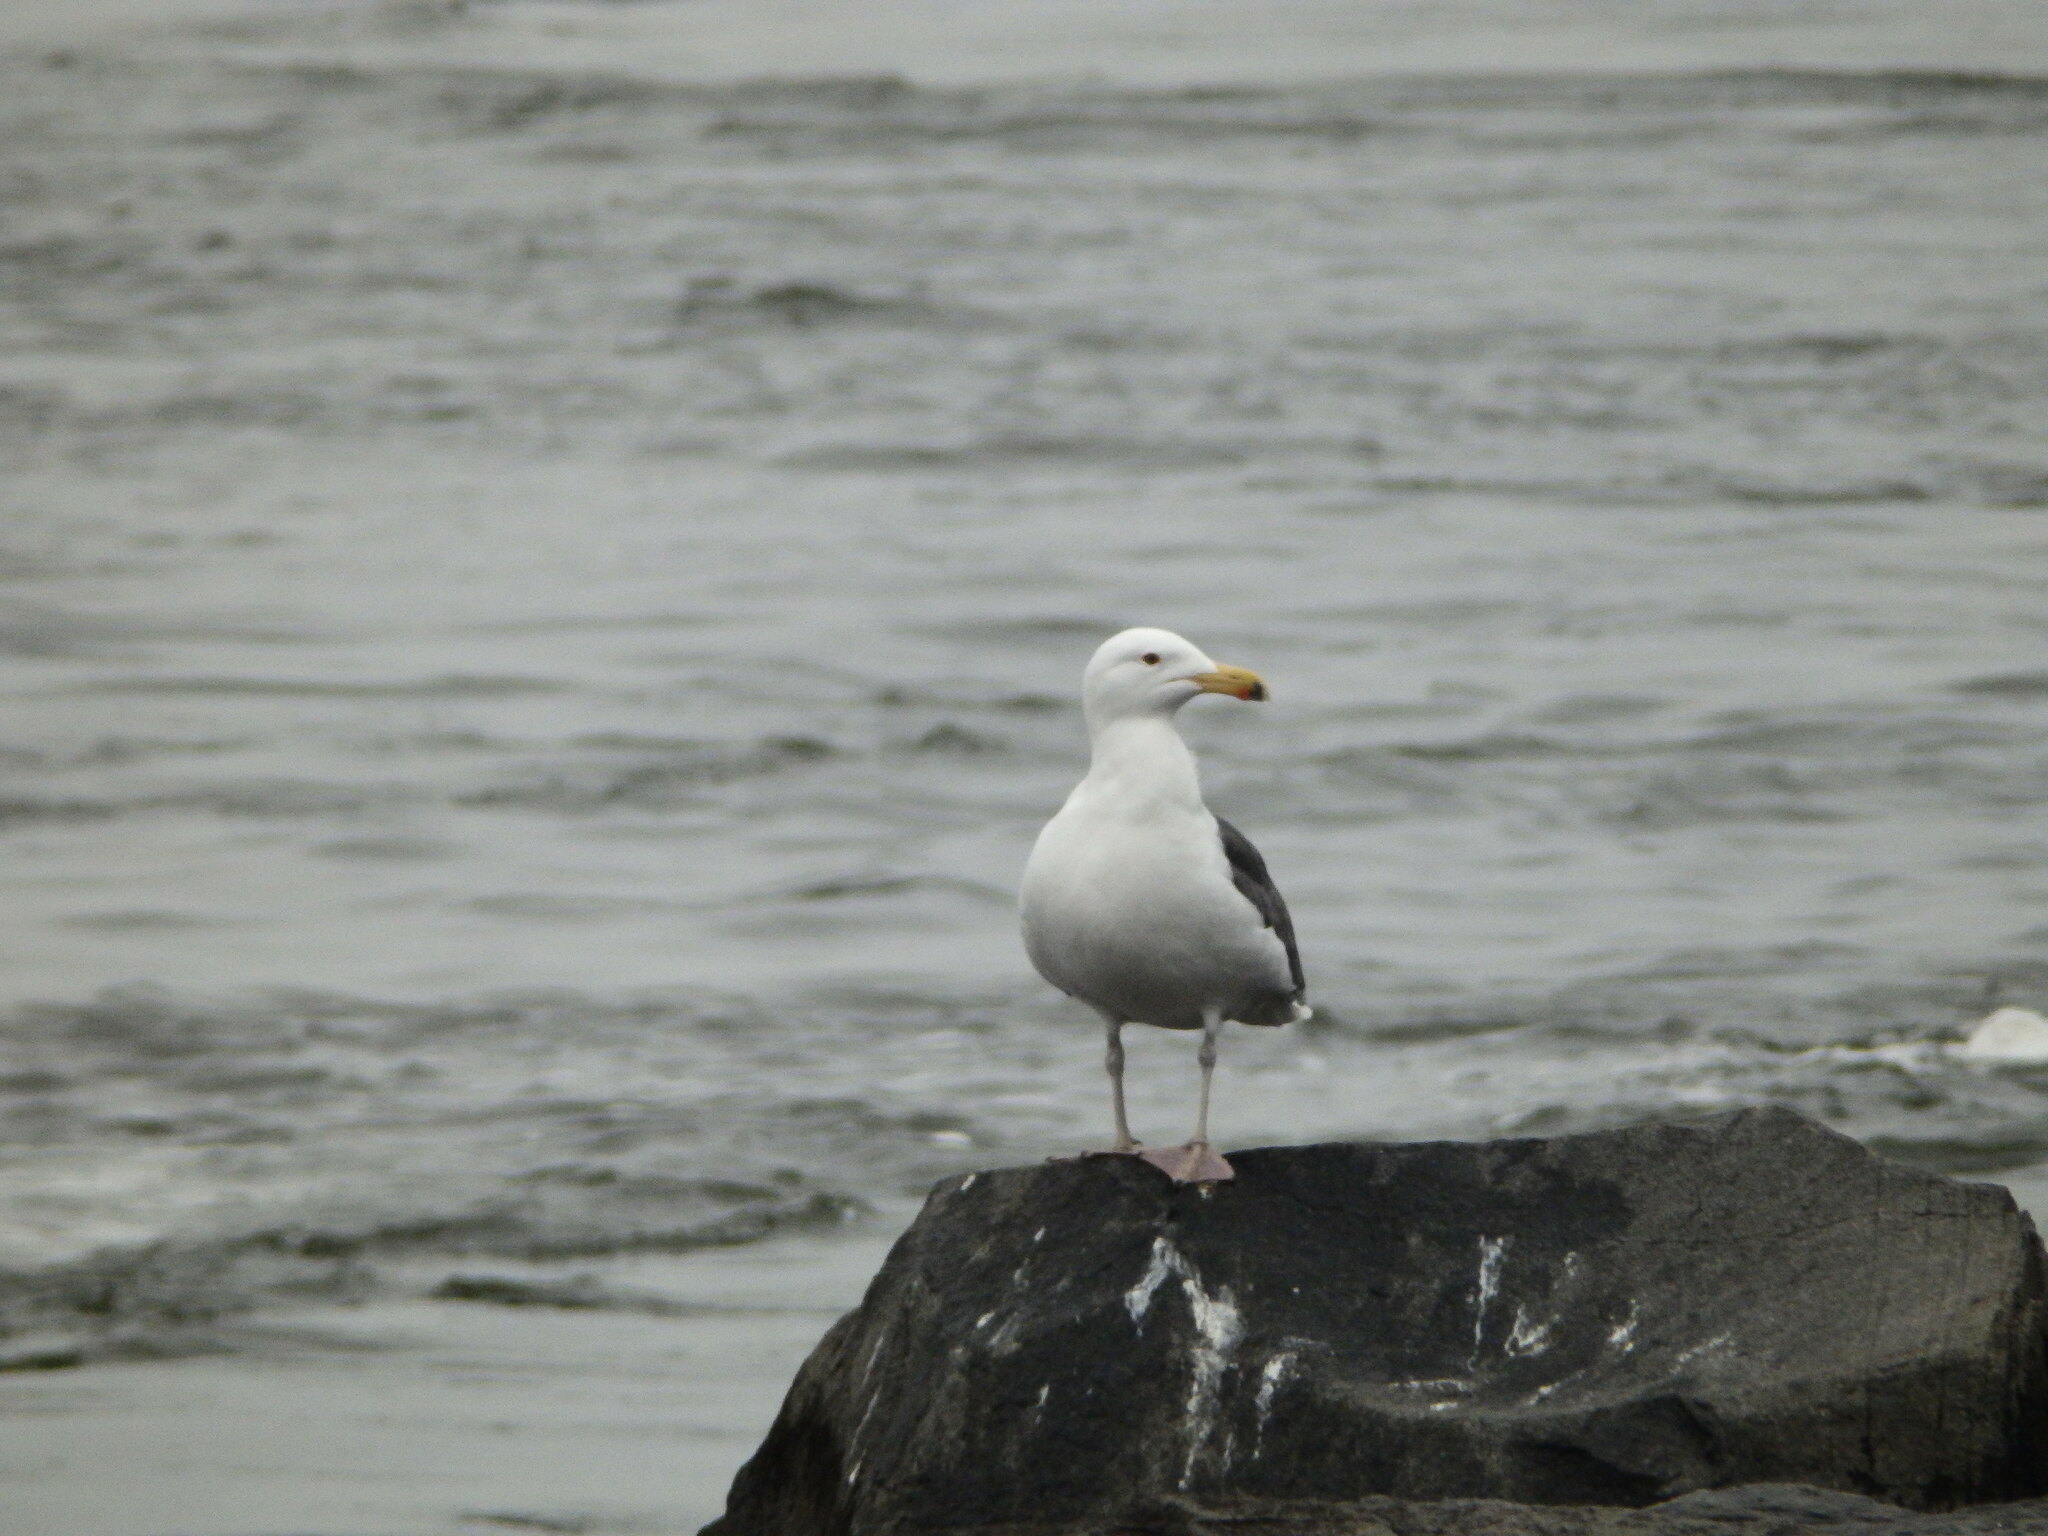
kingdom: Animalia
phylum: Chordata
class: Aves
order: Charadriiformes
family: Laridae
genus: Larus
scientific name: Larus marinus
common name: Great black-backed gull
